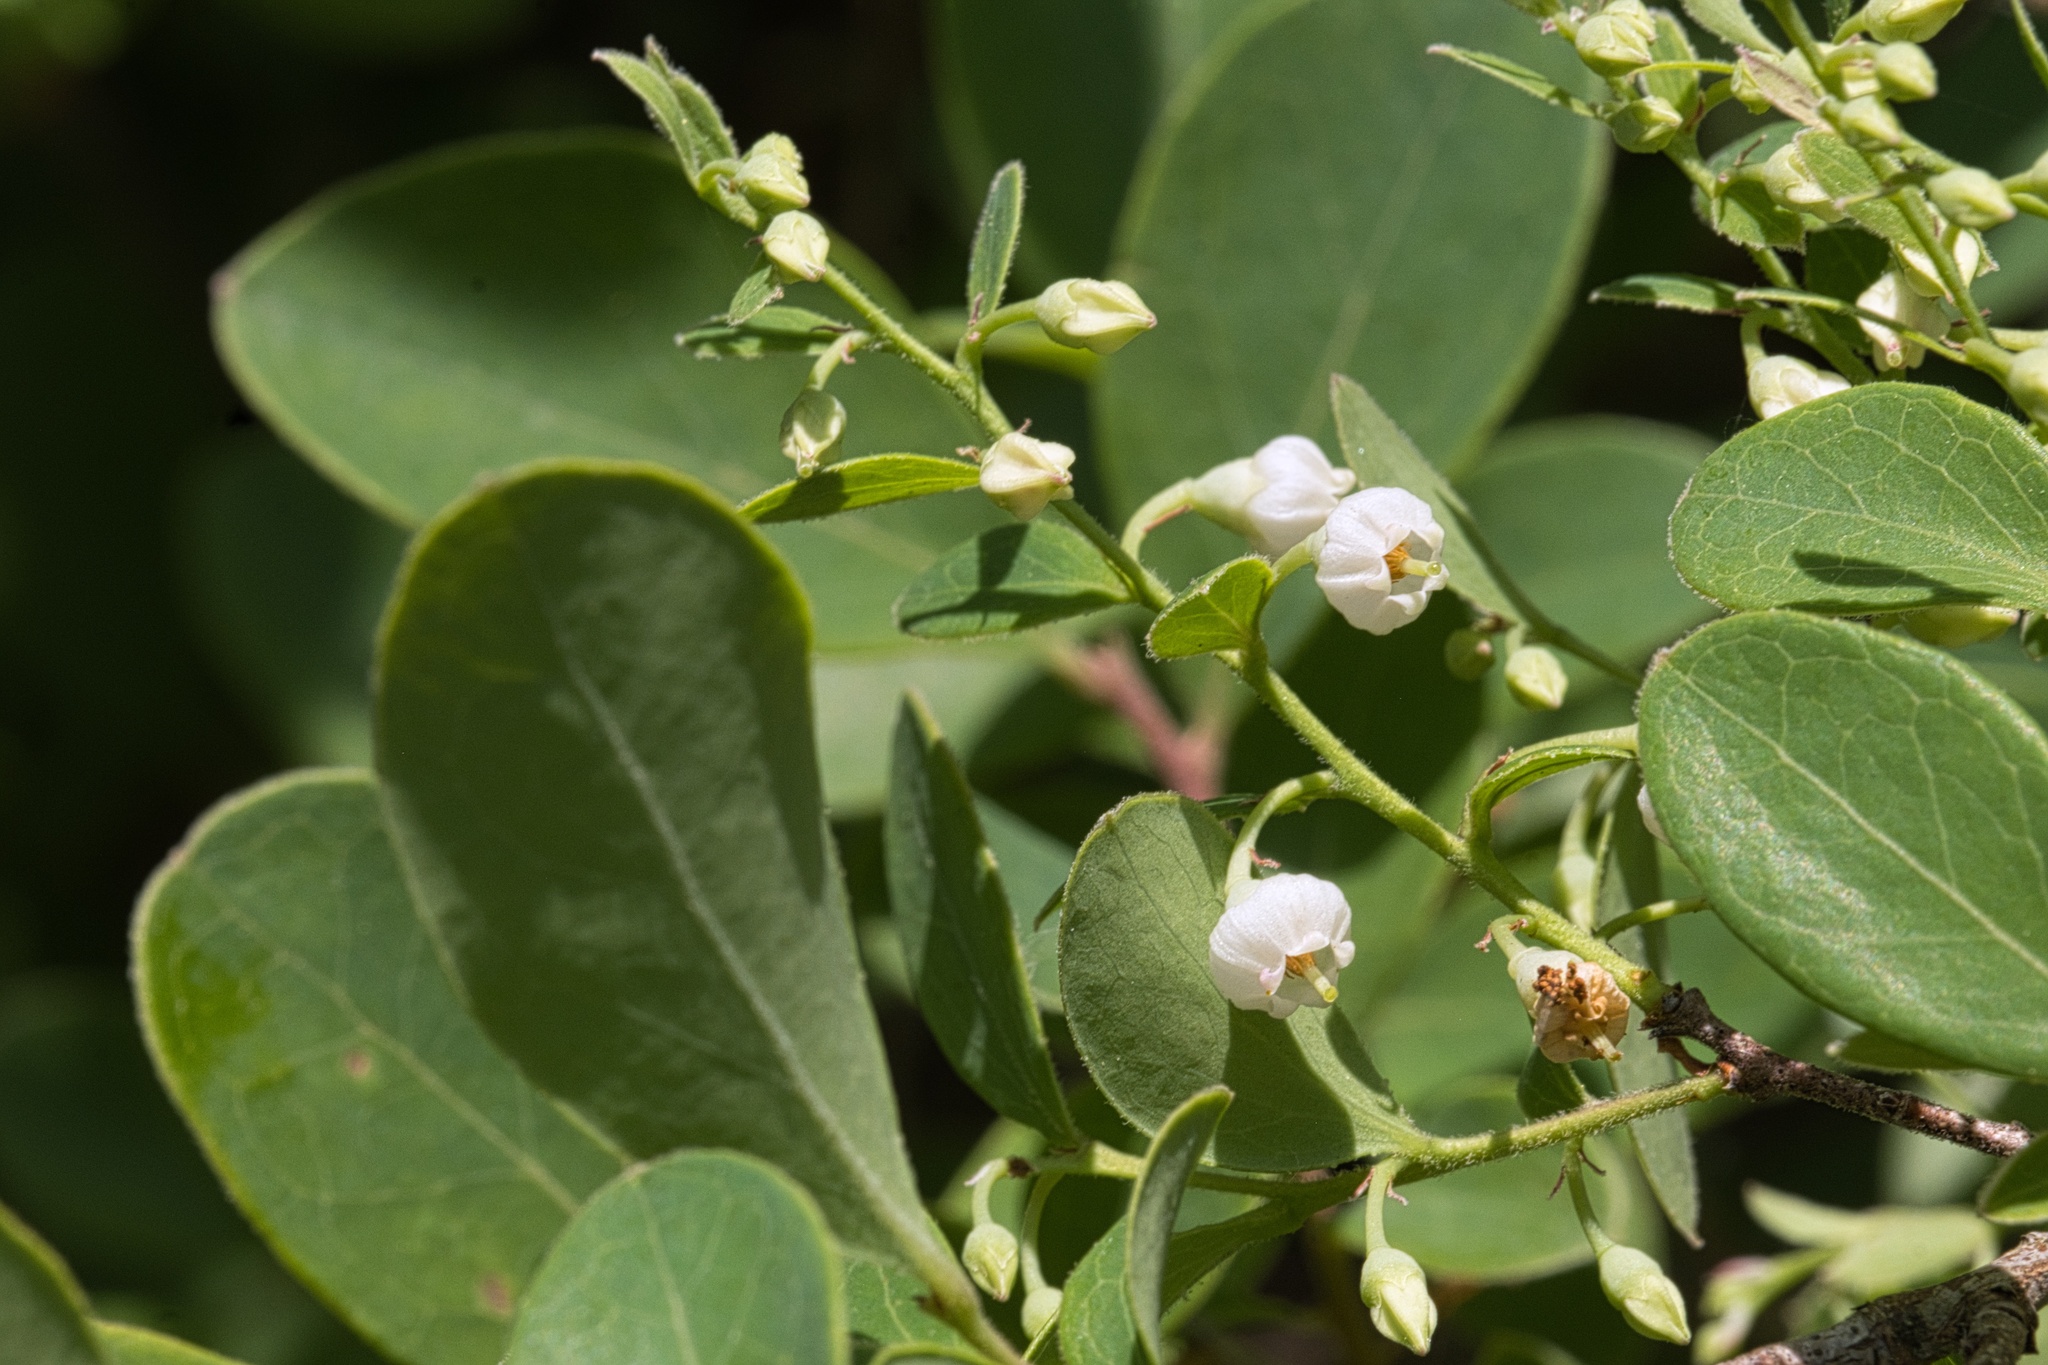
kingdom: Plantae
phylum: Tracheophyta
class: Magnoliopsida
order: Ericales
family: Ericaceae
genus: Vaccinium
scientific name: Vaccinium arboreum
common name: Farkleberry
